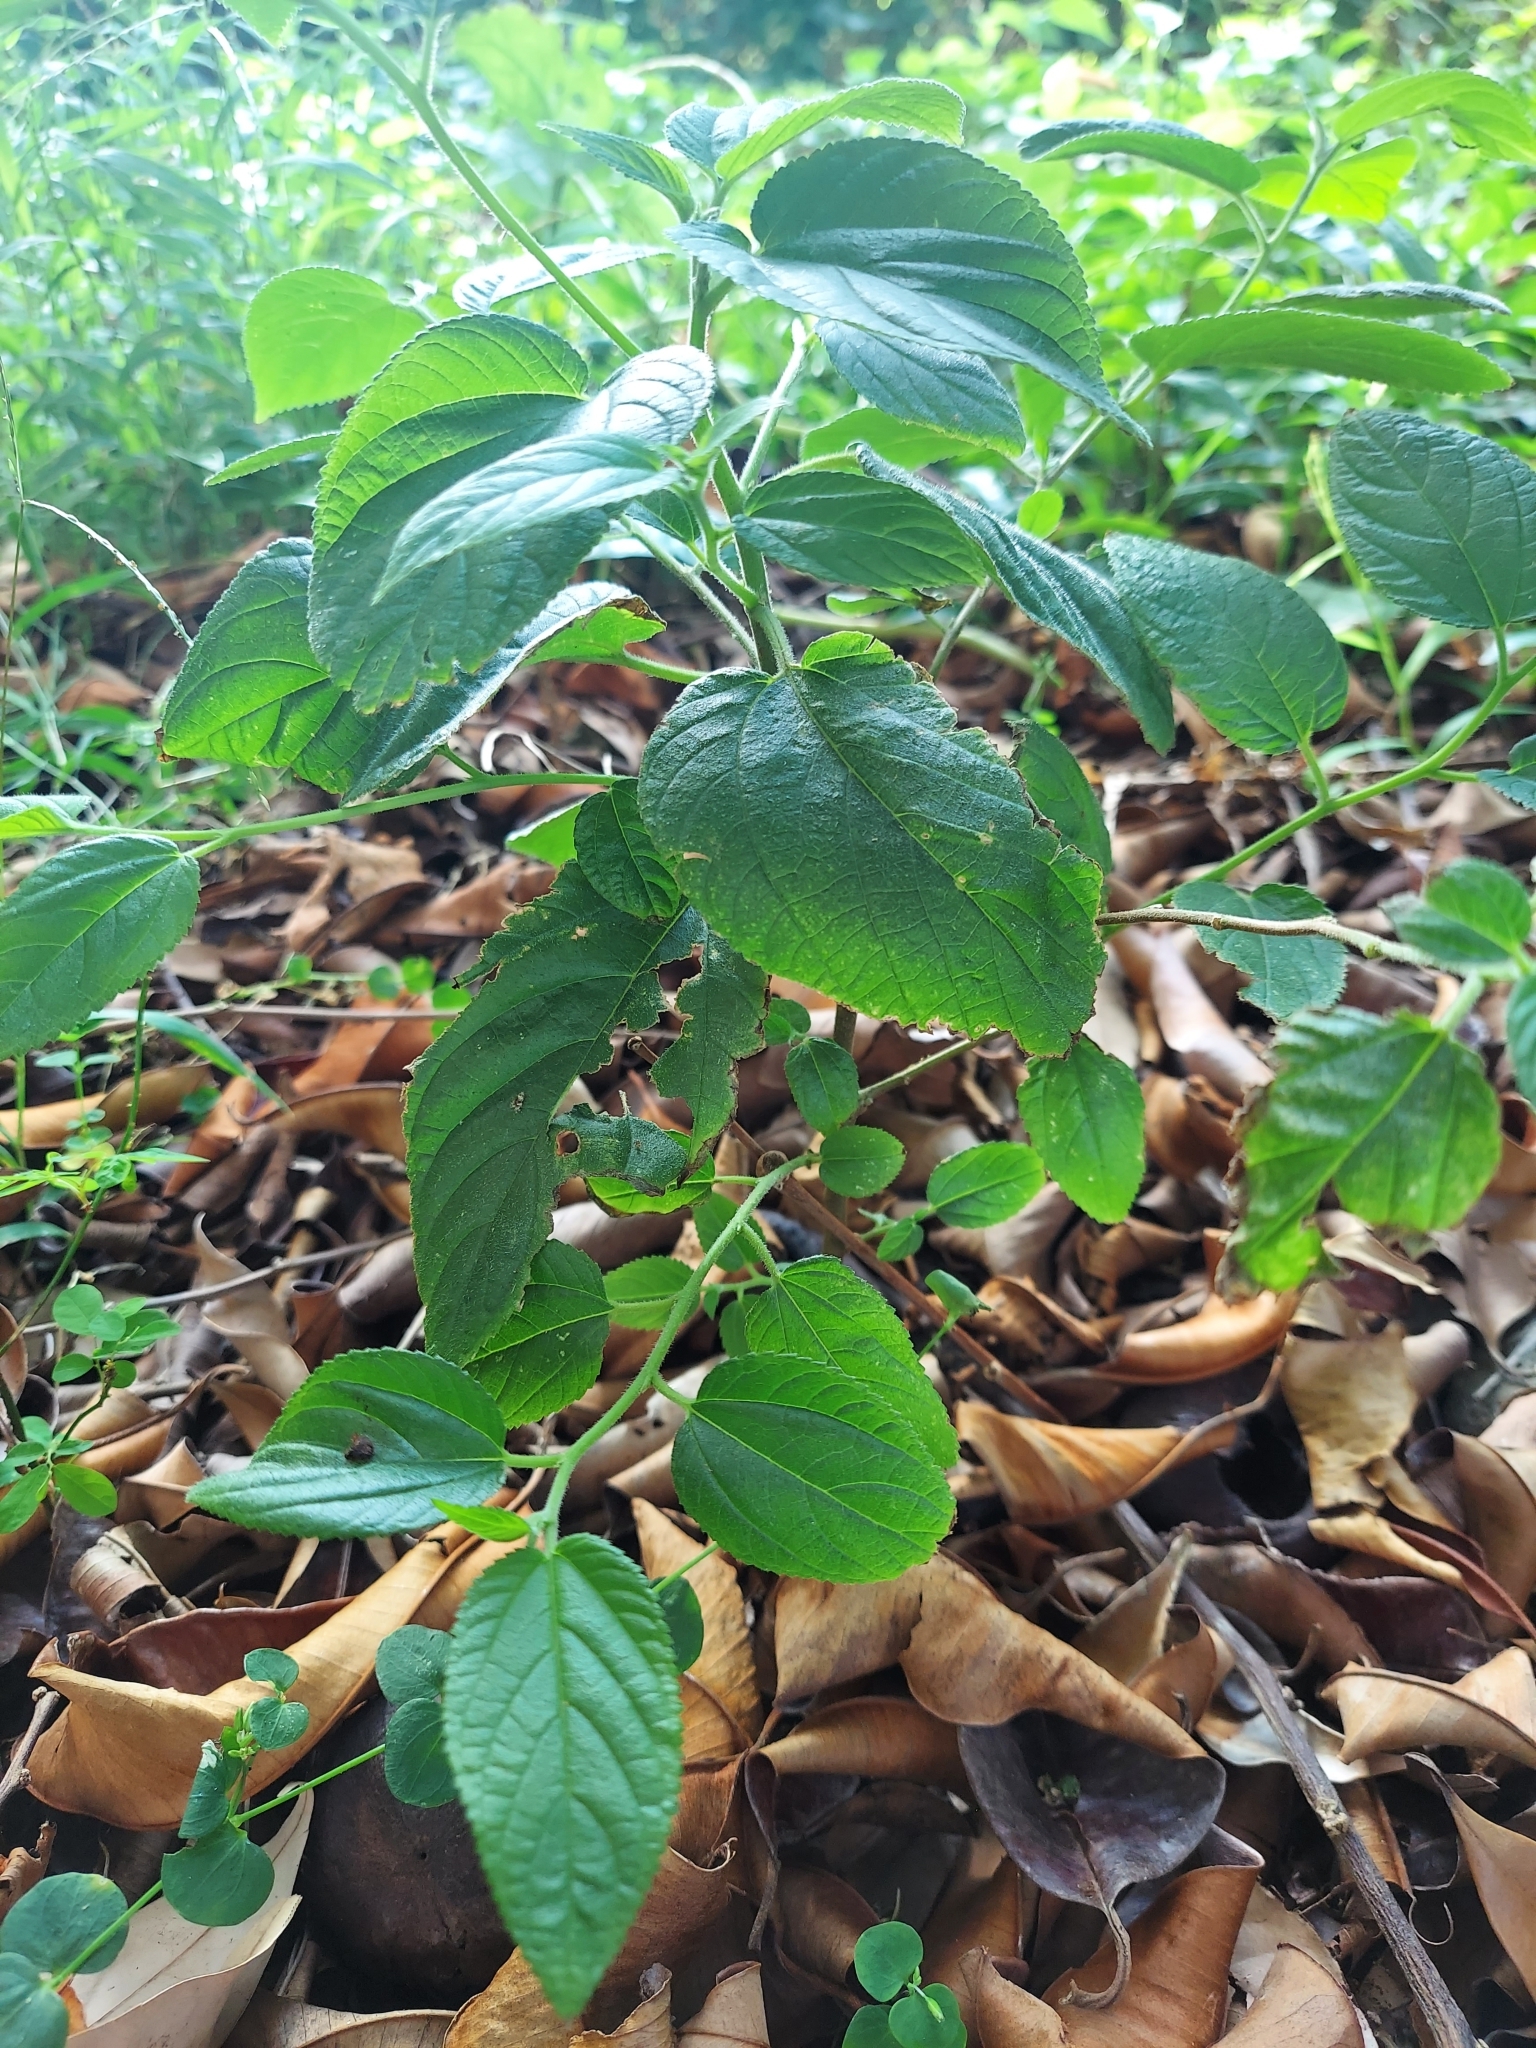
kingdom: Plantae
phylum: Tracheophyta
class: Magnoliopsida
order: Rosales
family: Cannabaceae
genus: Trema
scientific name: Trema orientale
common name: Indian charcoal tree
